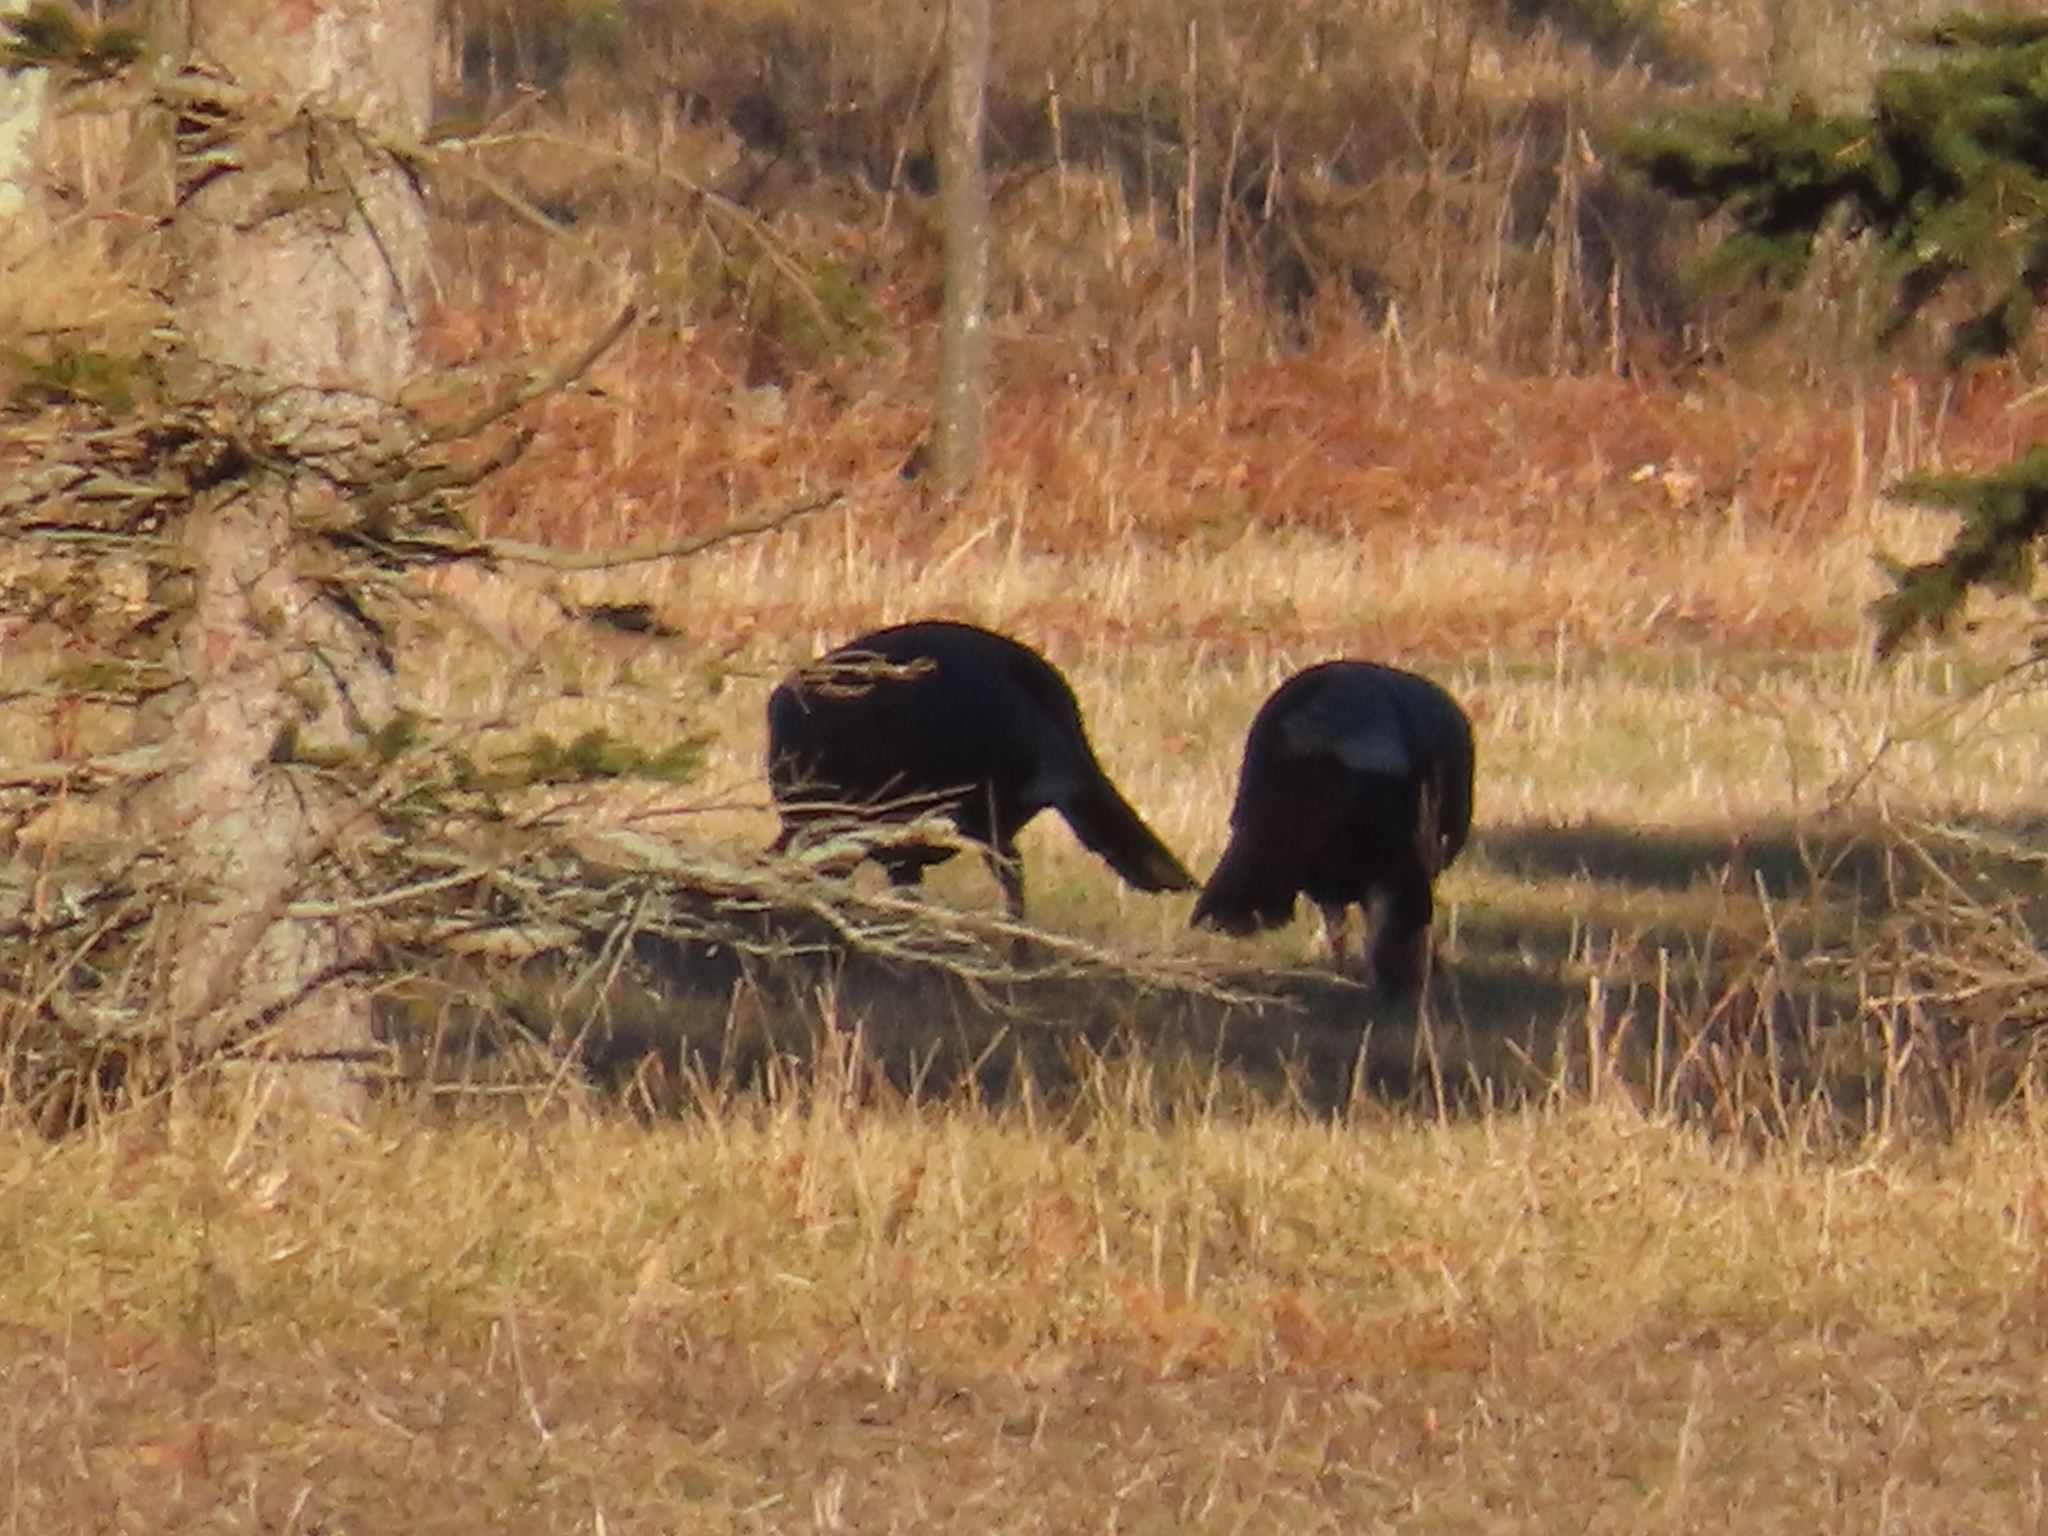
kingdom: Animalia
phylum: Chordata
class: Aves
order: Galliformes
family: Phasianidae
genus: Meleagris
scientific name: Meleagris gallopavo
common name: Wild turkey
